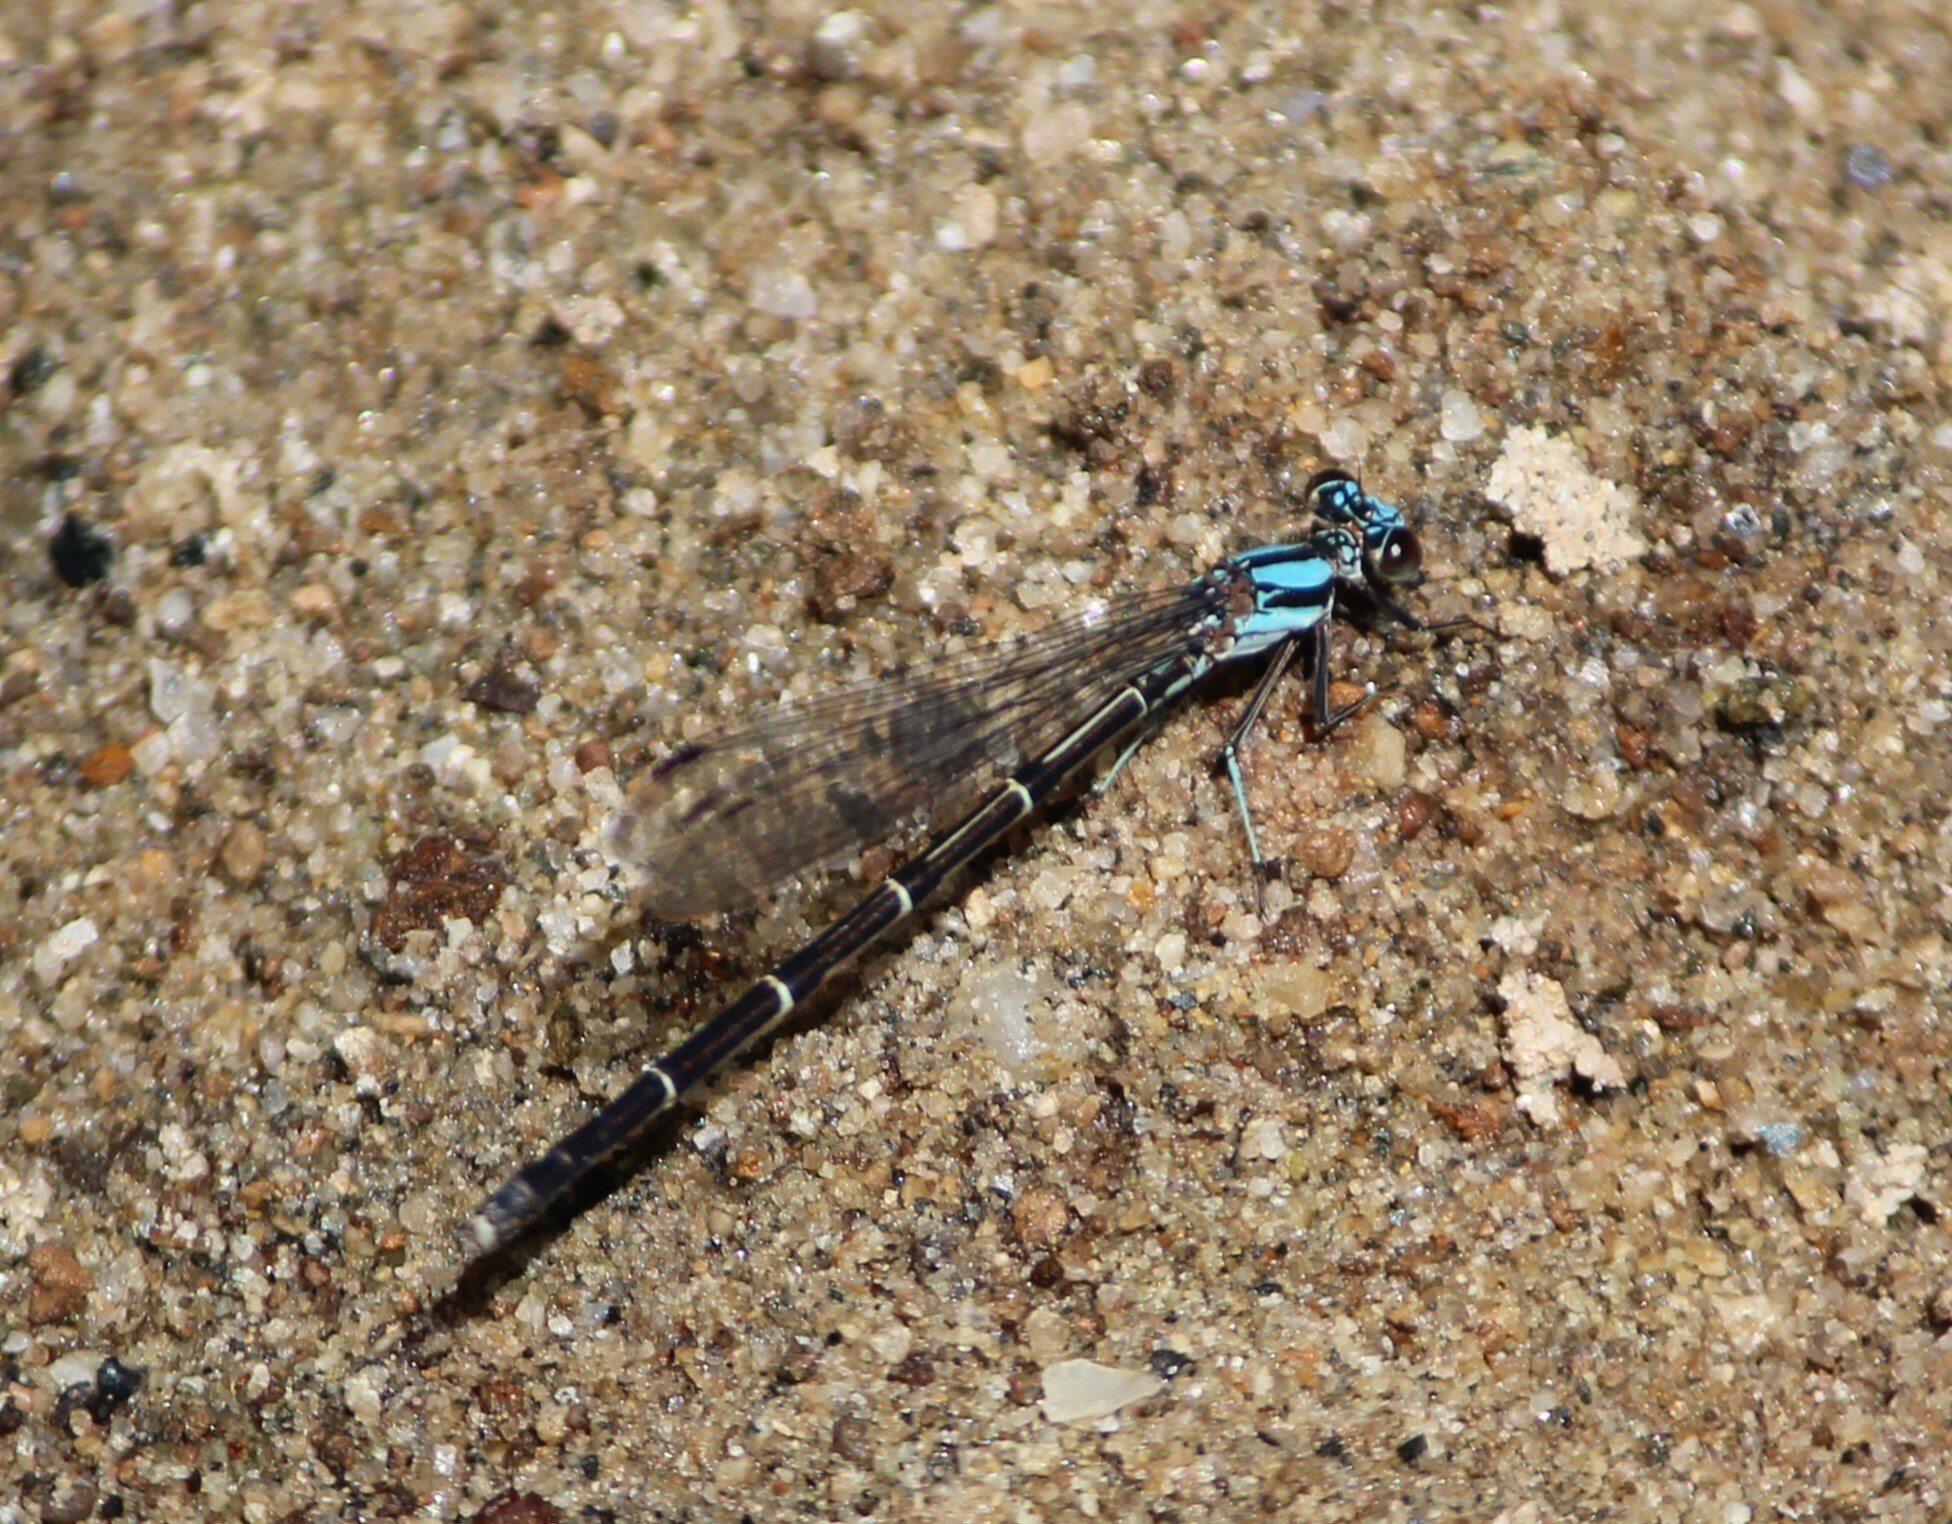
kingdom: Animalia
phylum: Arthropoda
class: Insecta
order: Odonata
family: Coenagrionidae
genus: Argia
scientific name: Argia tibialis
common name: Blue-tipped dancer
